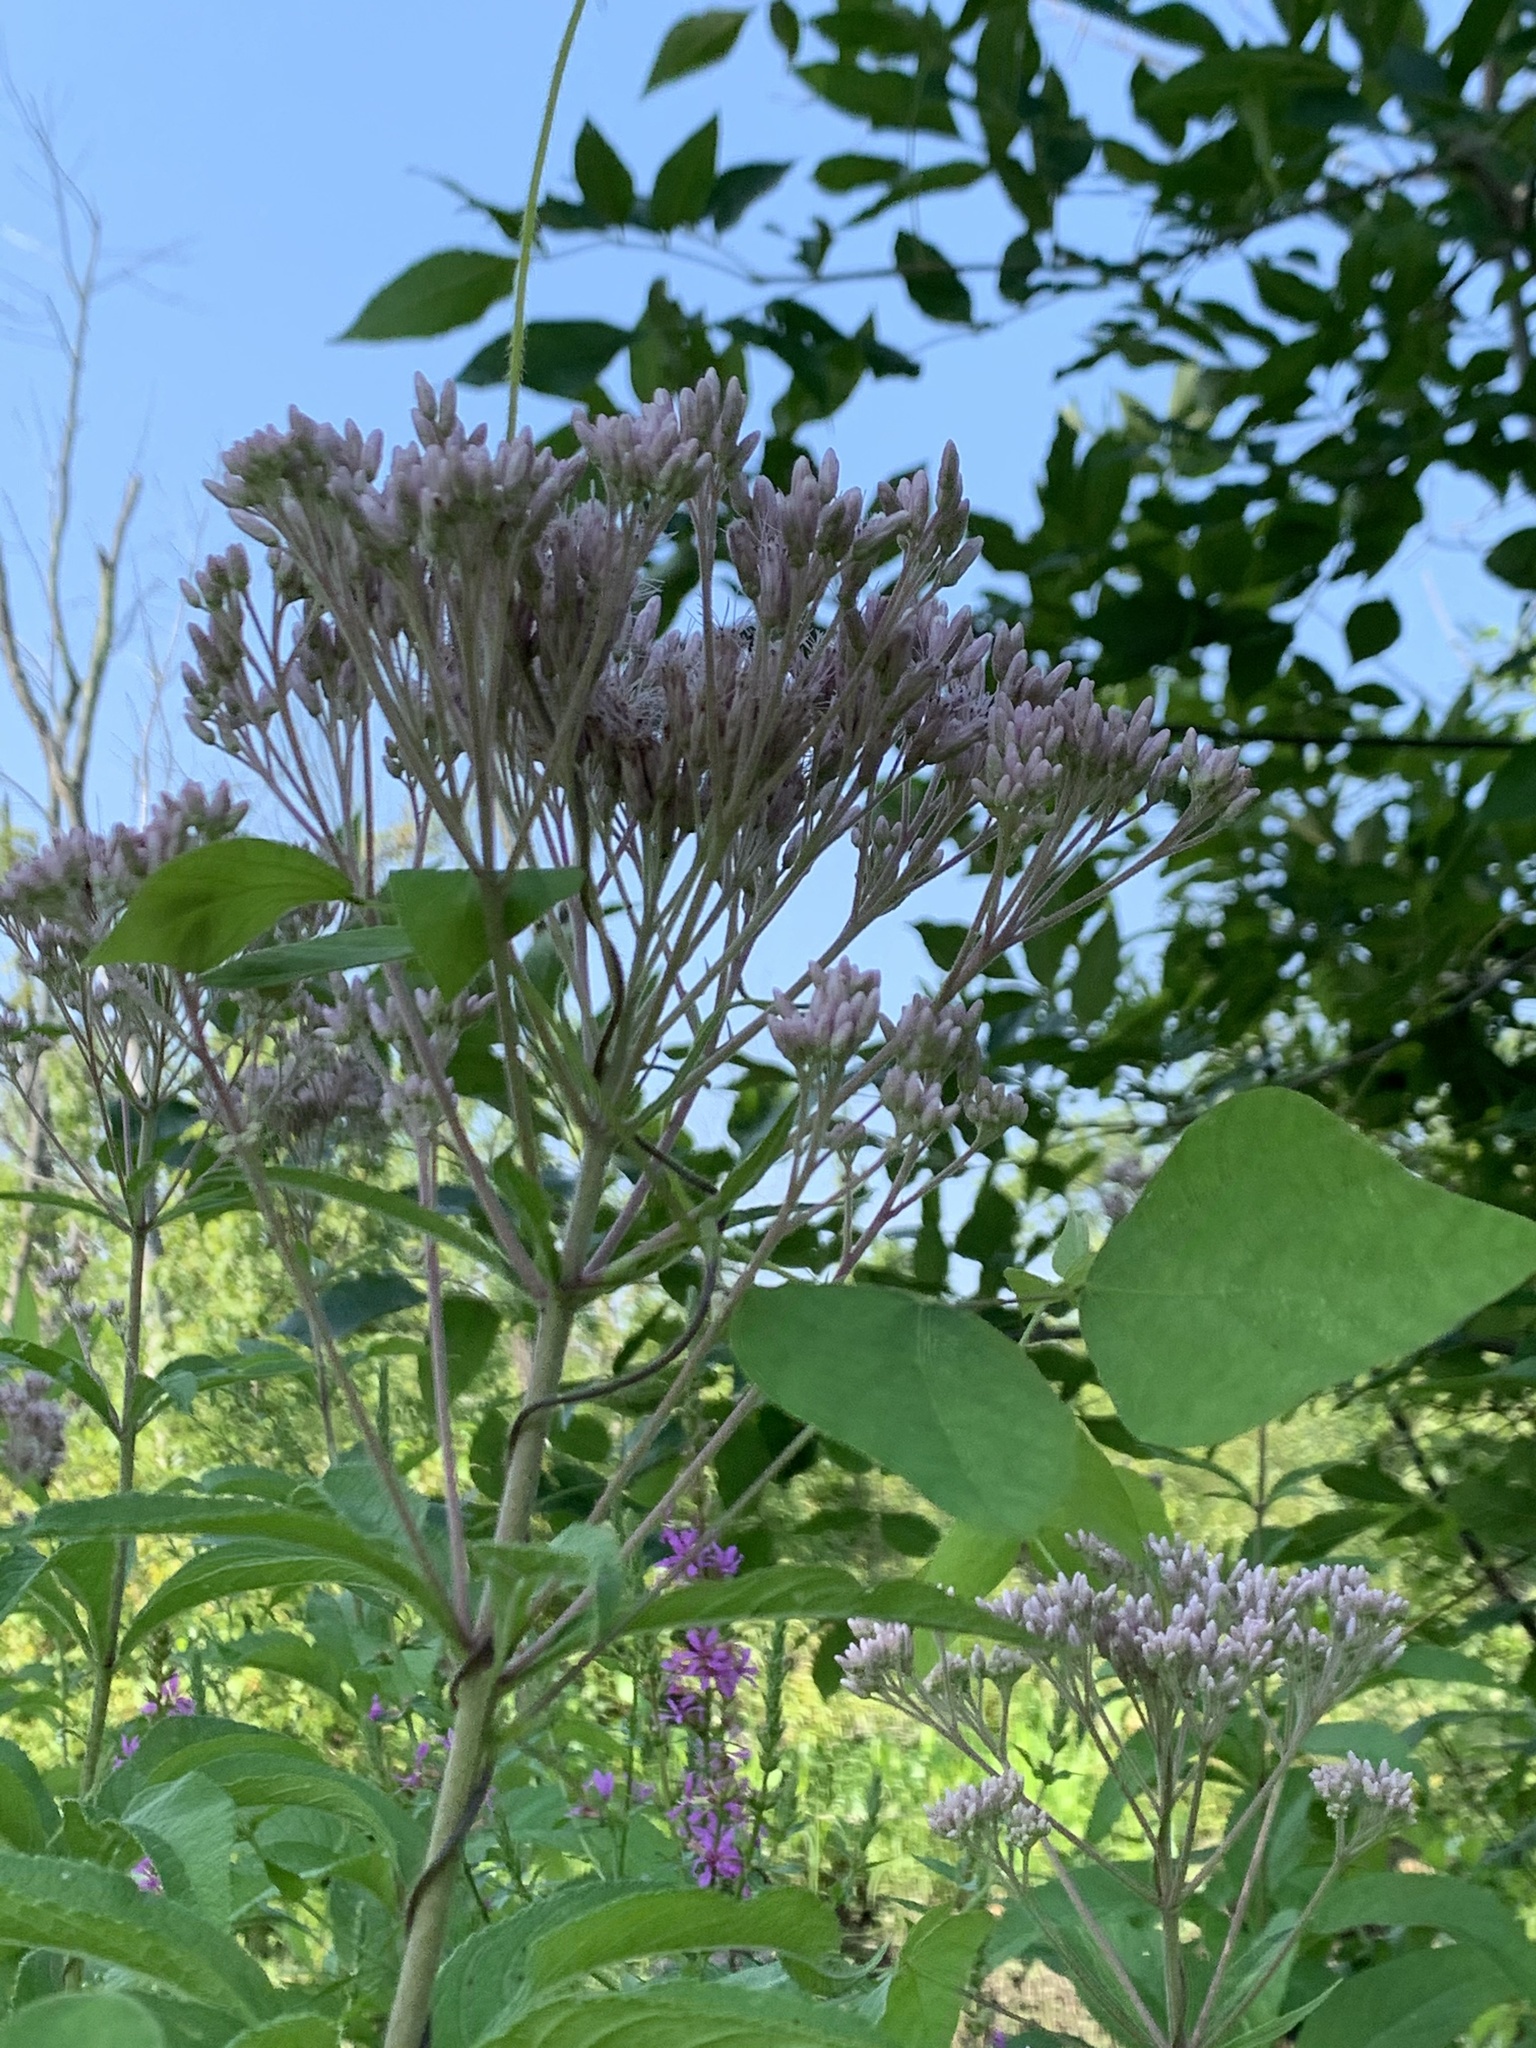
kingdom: Plantae
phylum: Tracheophyta
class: Magnoliopsida
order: Asterales
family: Asteraceae
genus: Eutrochium
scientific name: Eutrochium maculatum
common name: Spotted joe pye weed
